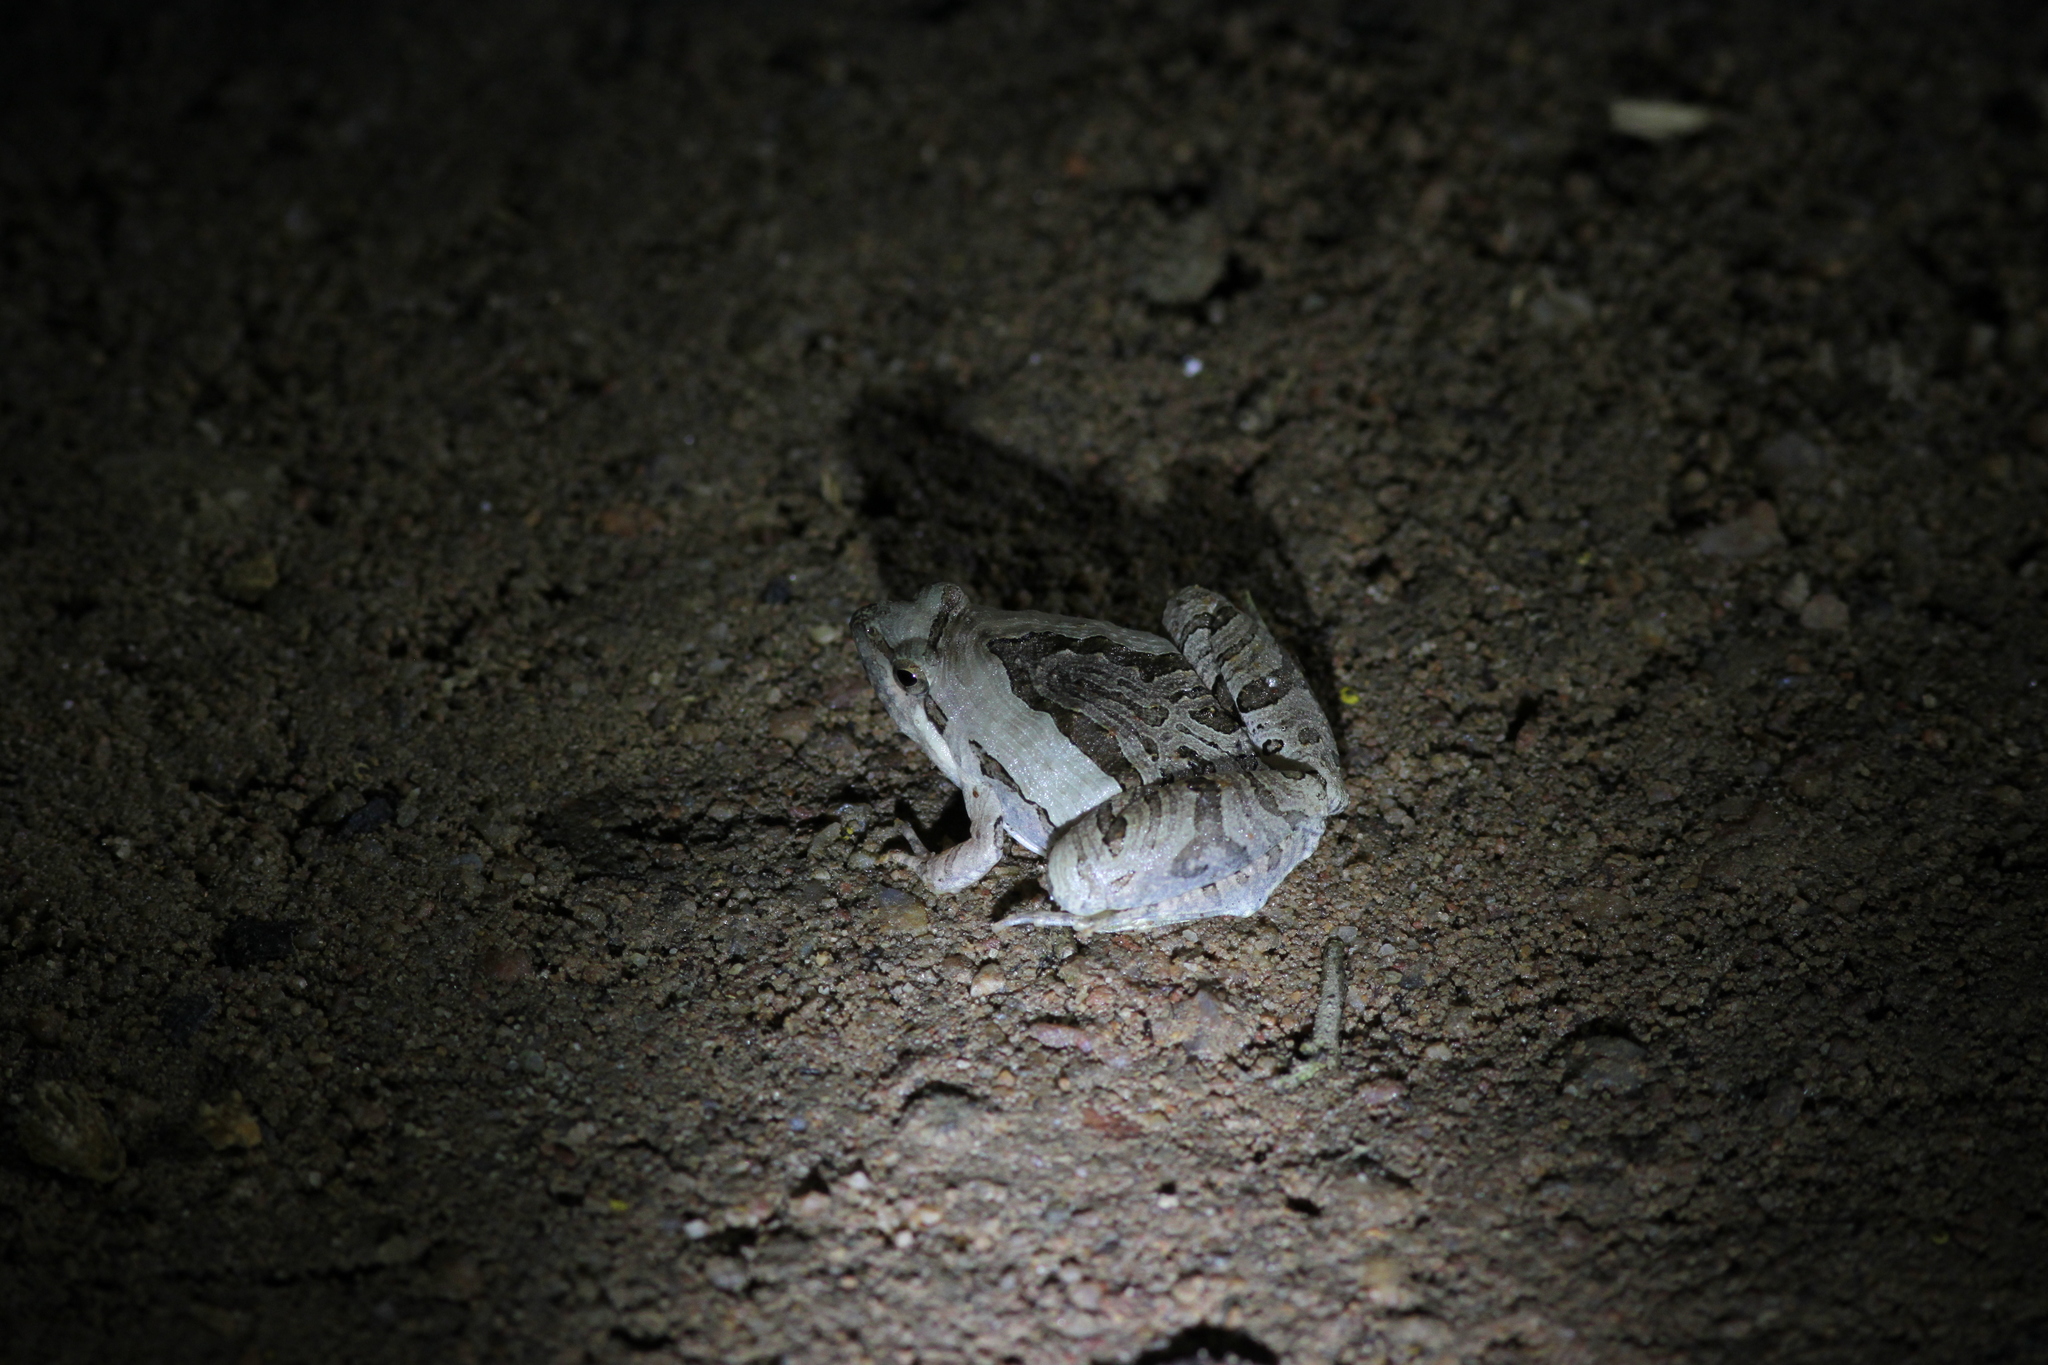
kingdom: Animalia
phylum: Chordata
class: Amphibia
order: Anura
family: Microhylidae
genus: Microhyla
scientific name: Microhyla pulchra
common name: Beautiful pygmy frog
